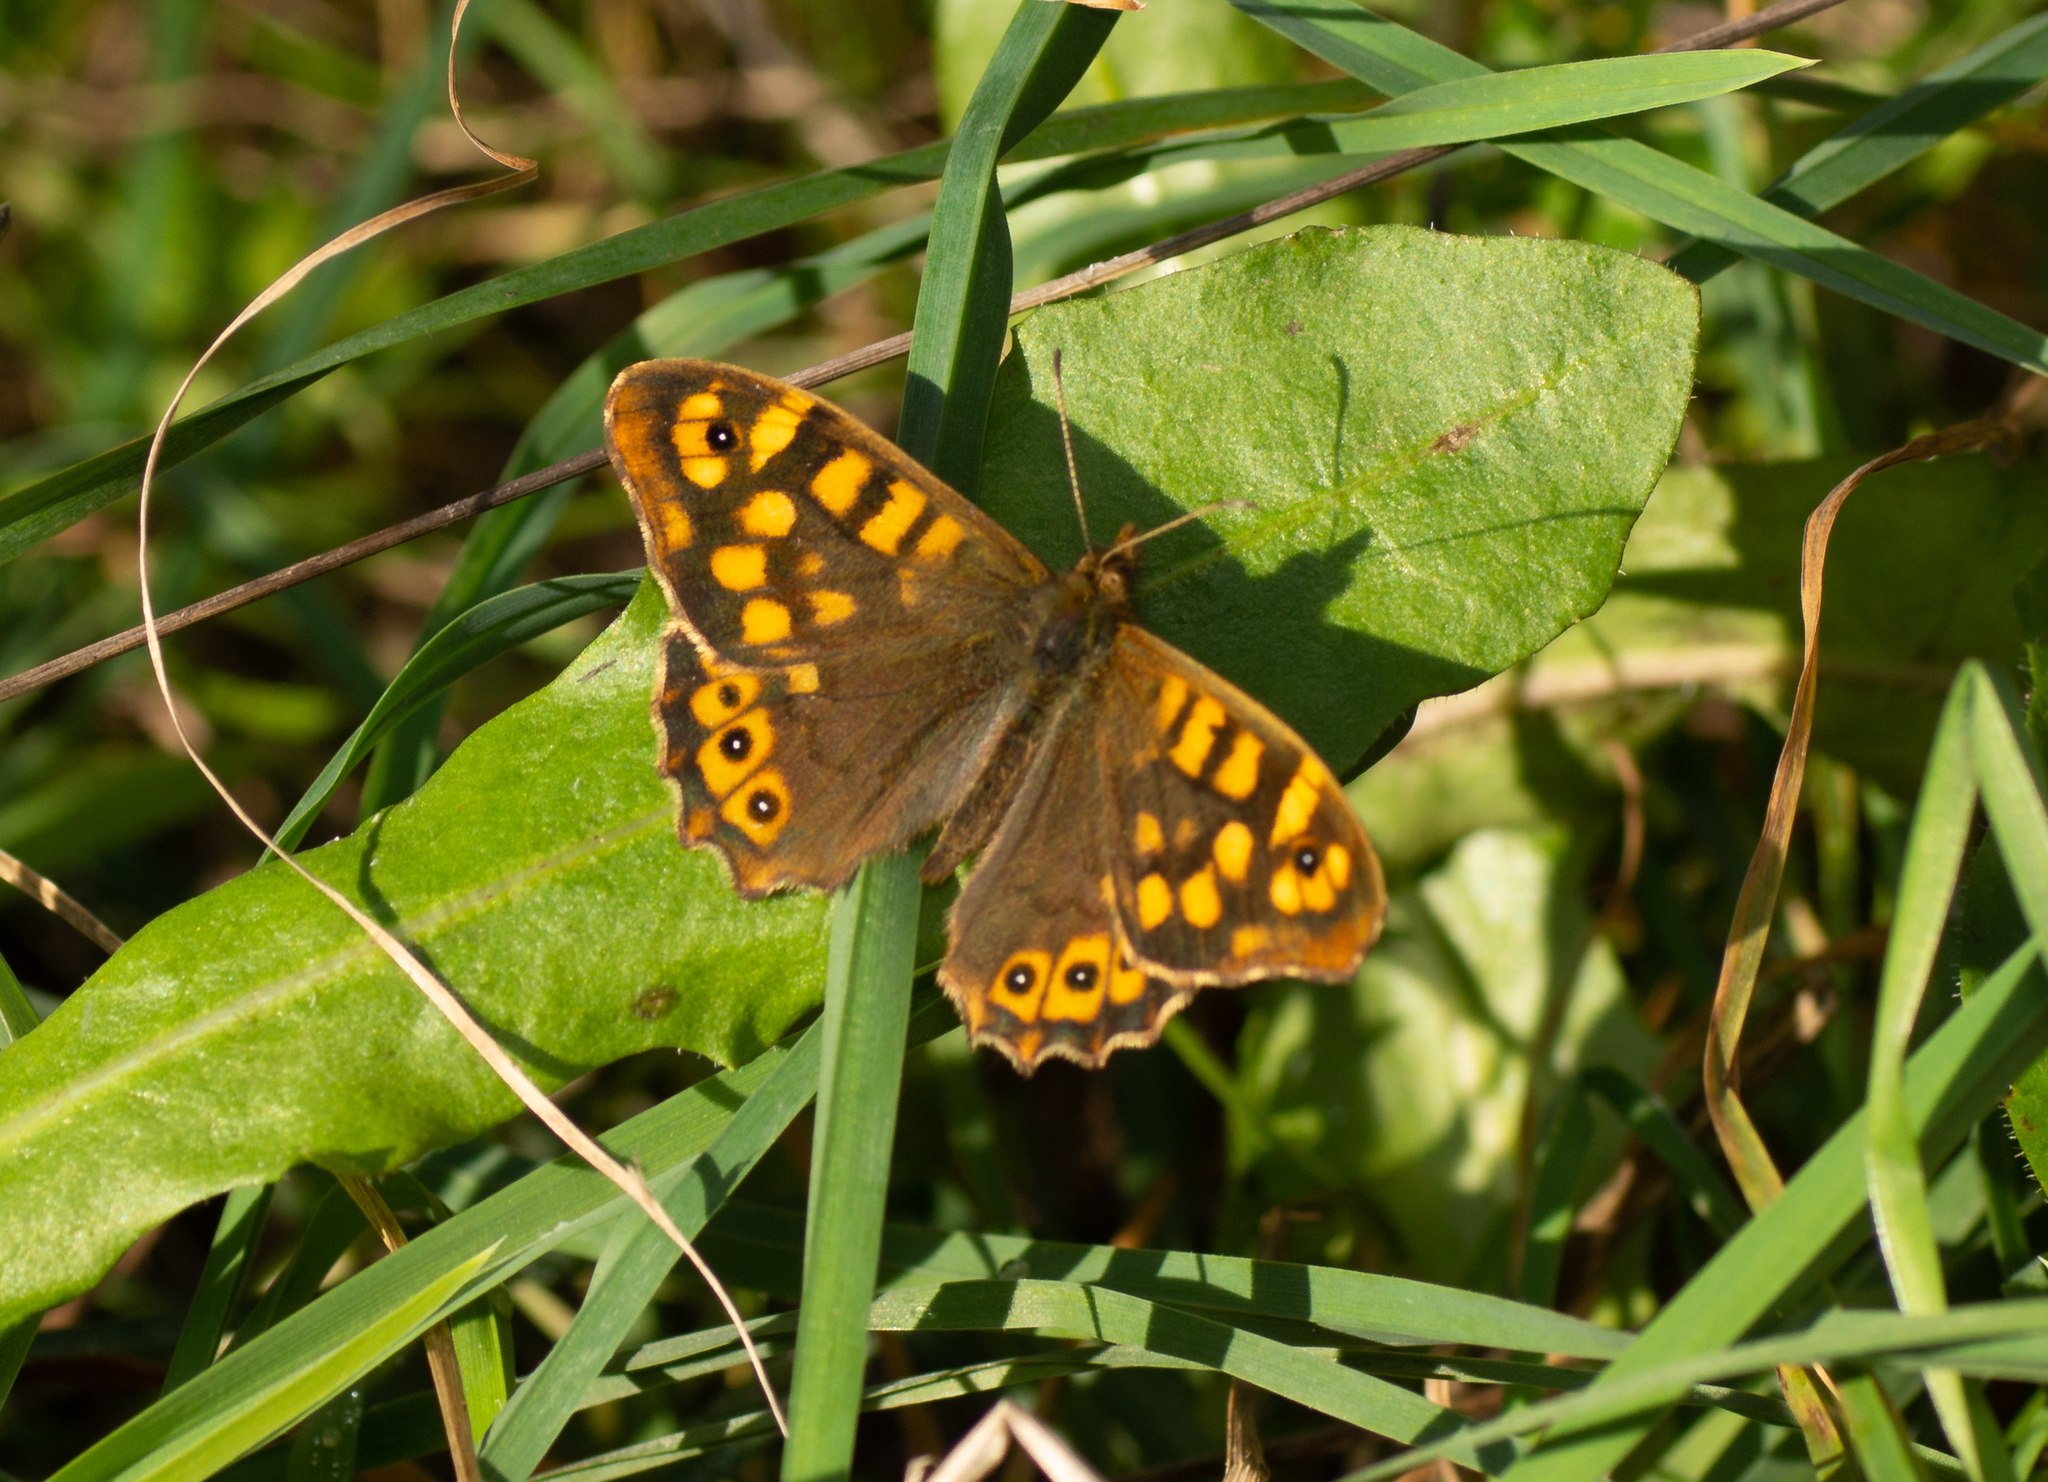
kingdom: Animalia
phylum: Arthropoda
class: Insecta
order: Lepidoptera
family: Nymphalidae
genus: Pararge
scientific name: Pararge aegeria
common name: Speckled wood
